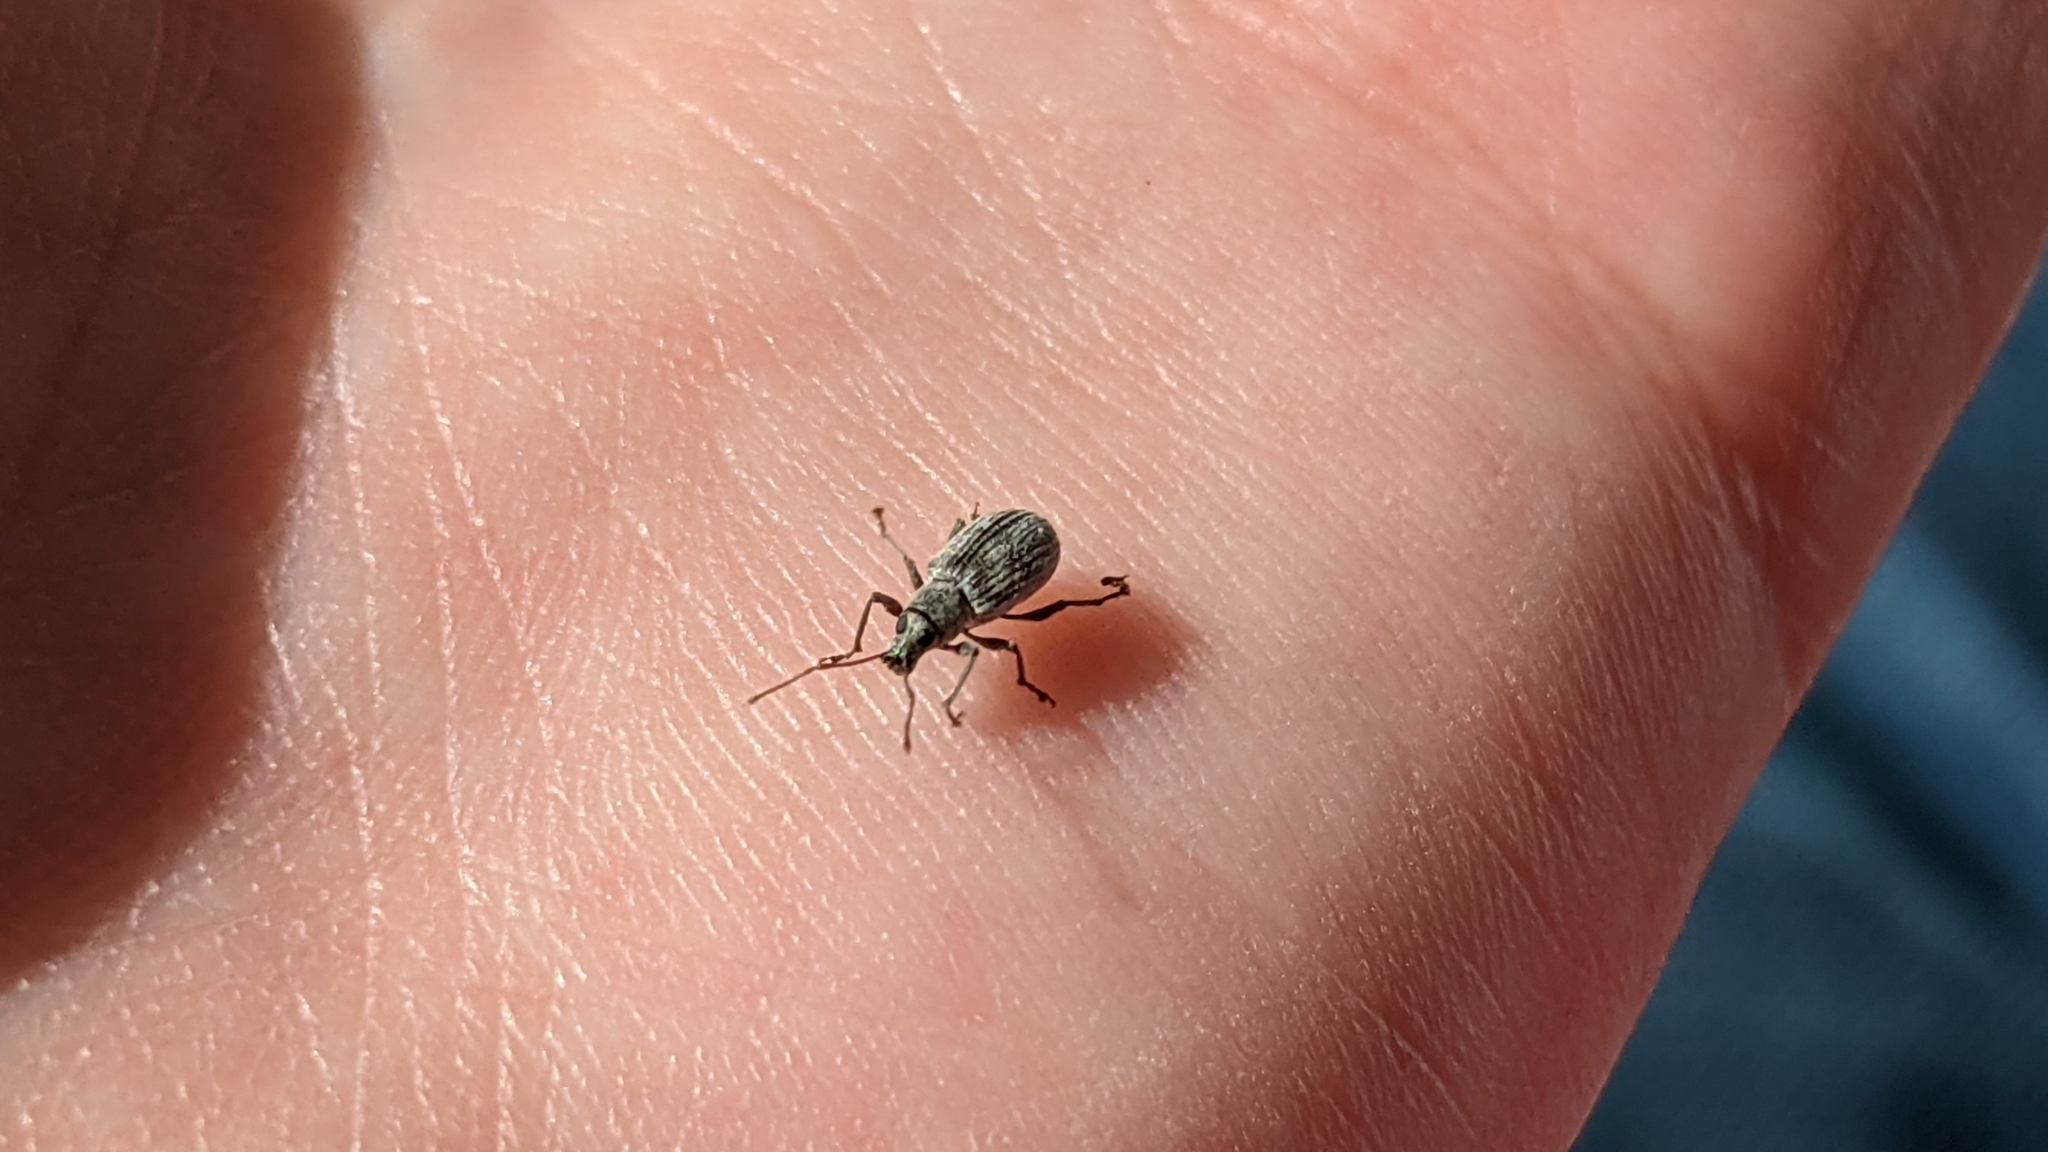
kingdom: Animalia
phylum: Arthropoda
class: Insecta
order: Coleoptera
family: Curculionidae
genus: Cyrtepistomus
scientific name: Cyrtepistomus castaneus
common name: Weevil
